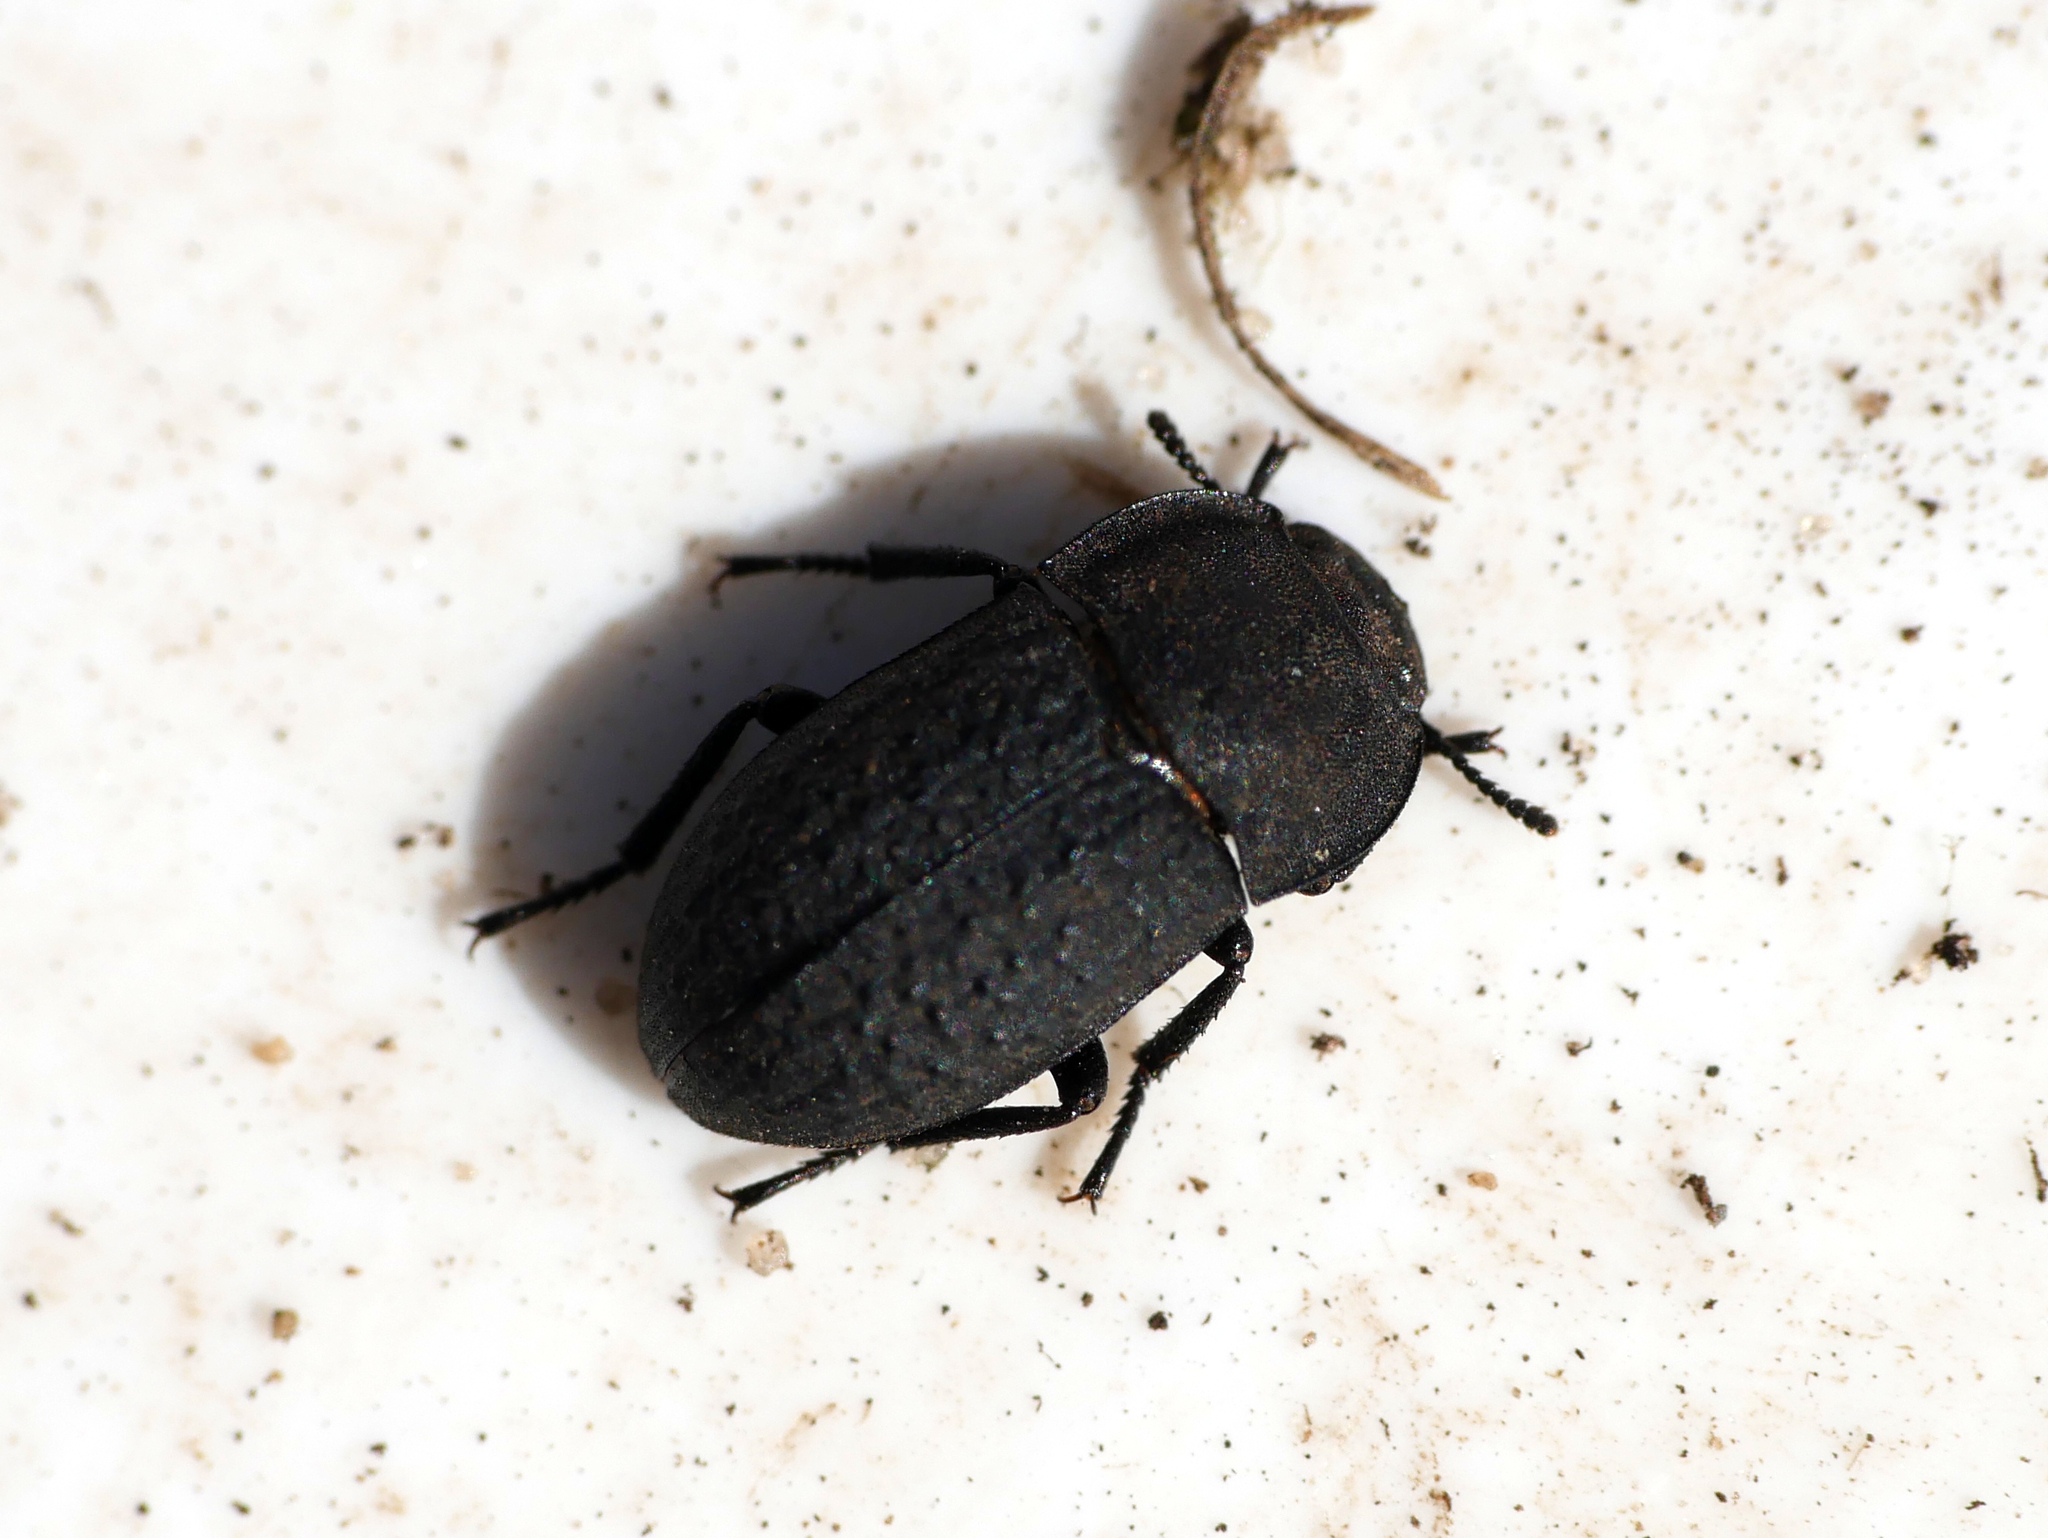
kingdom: Animalia
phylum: Arthropoda
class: Insecta
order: Coleoptera
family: Tenebrionidae
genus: Opatrum
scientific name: Opatrum sabulosum
